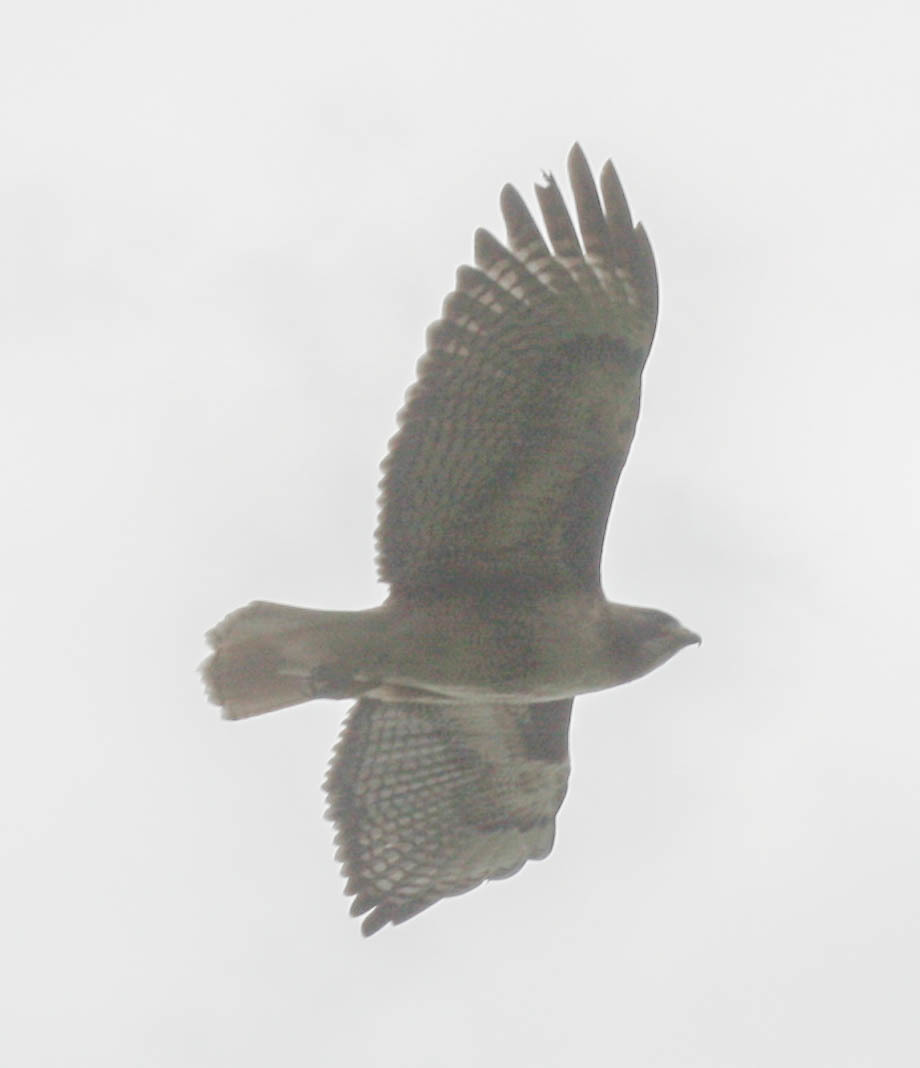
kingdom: Animalia
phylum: Chordata
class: Aves
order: Accipitriformes
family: Accipitridae
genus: Buteo
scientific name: Buteo jamaicensis
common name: Red-tailed hawk
